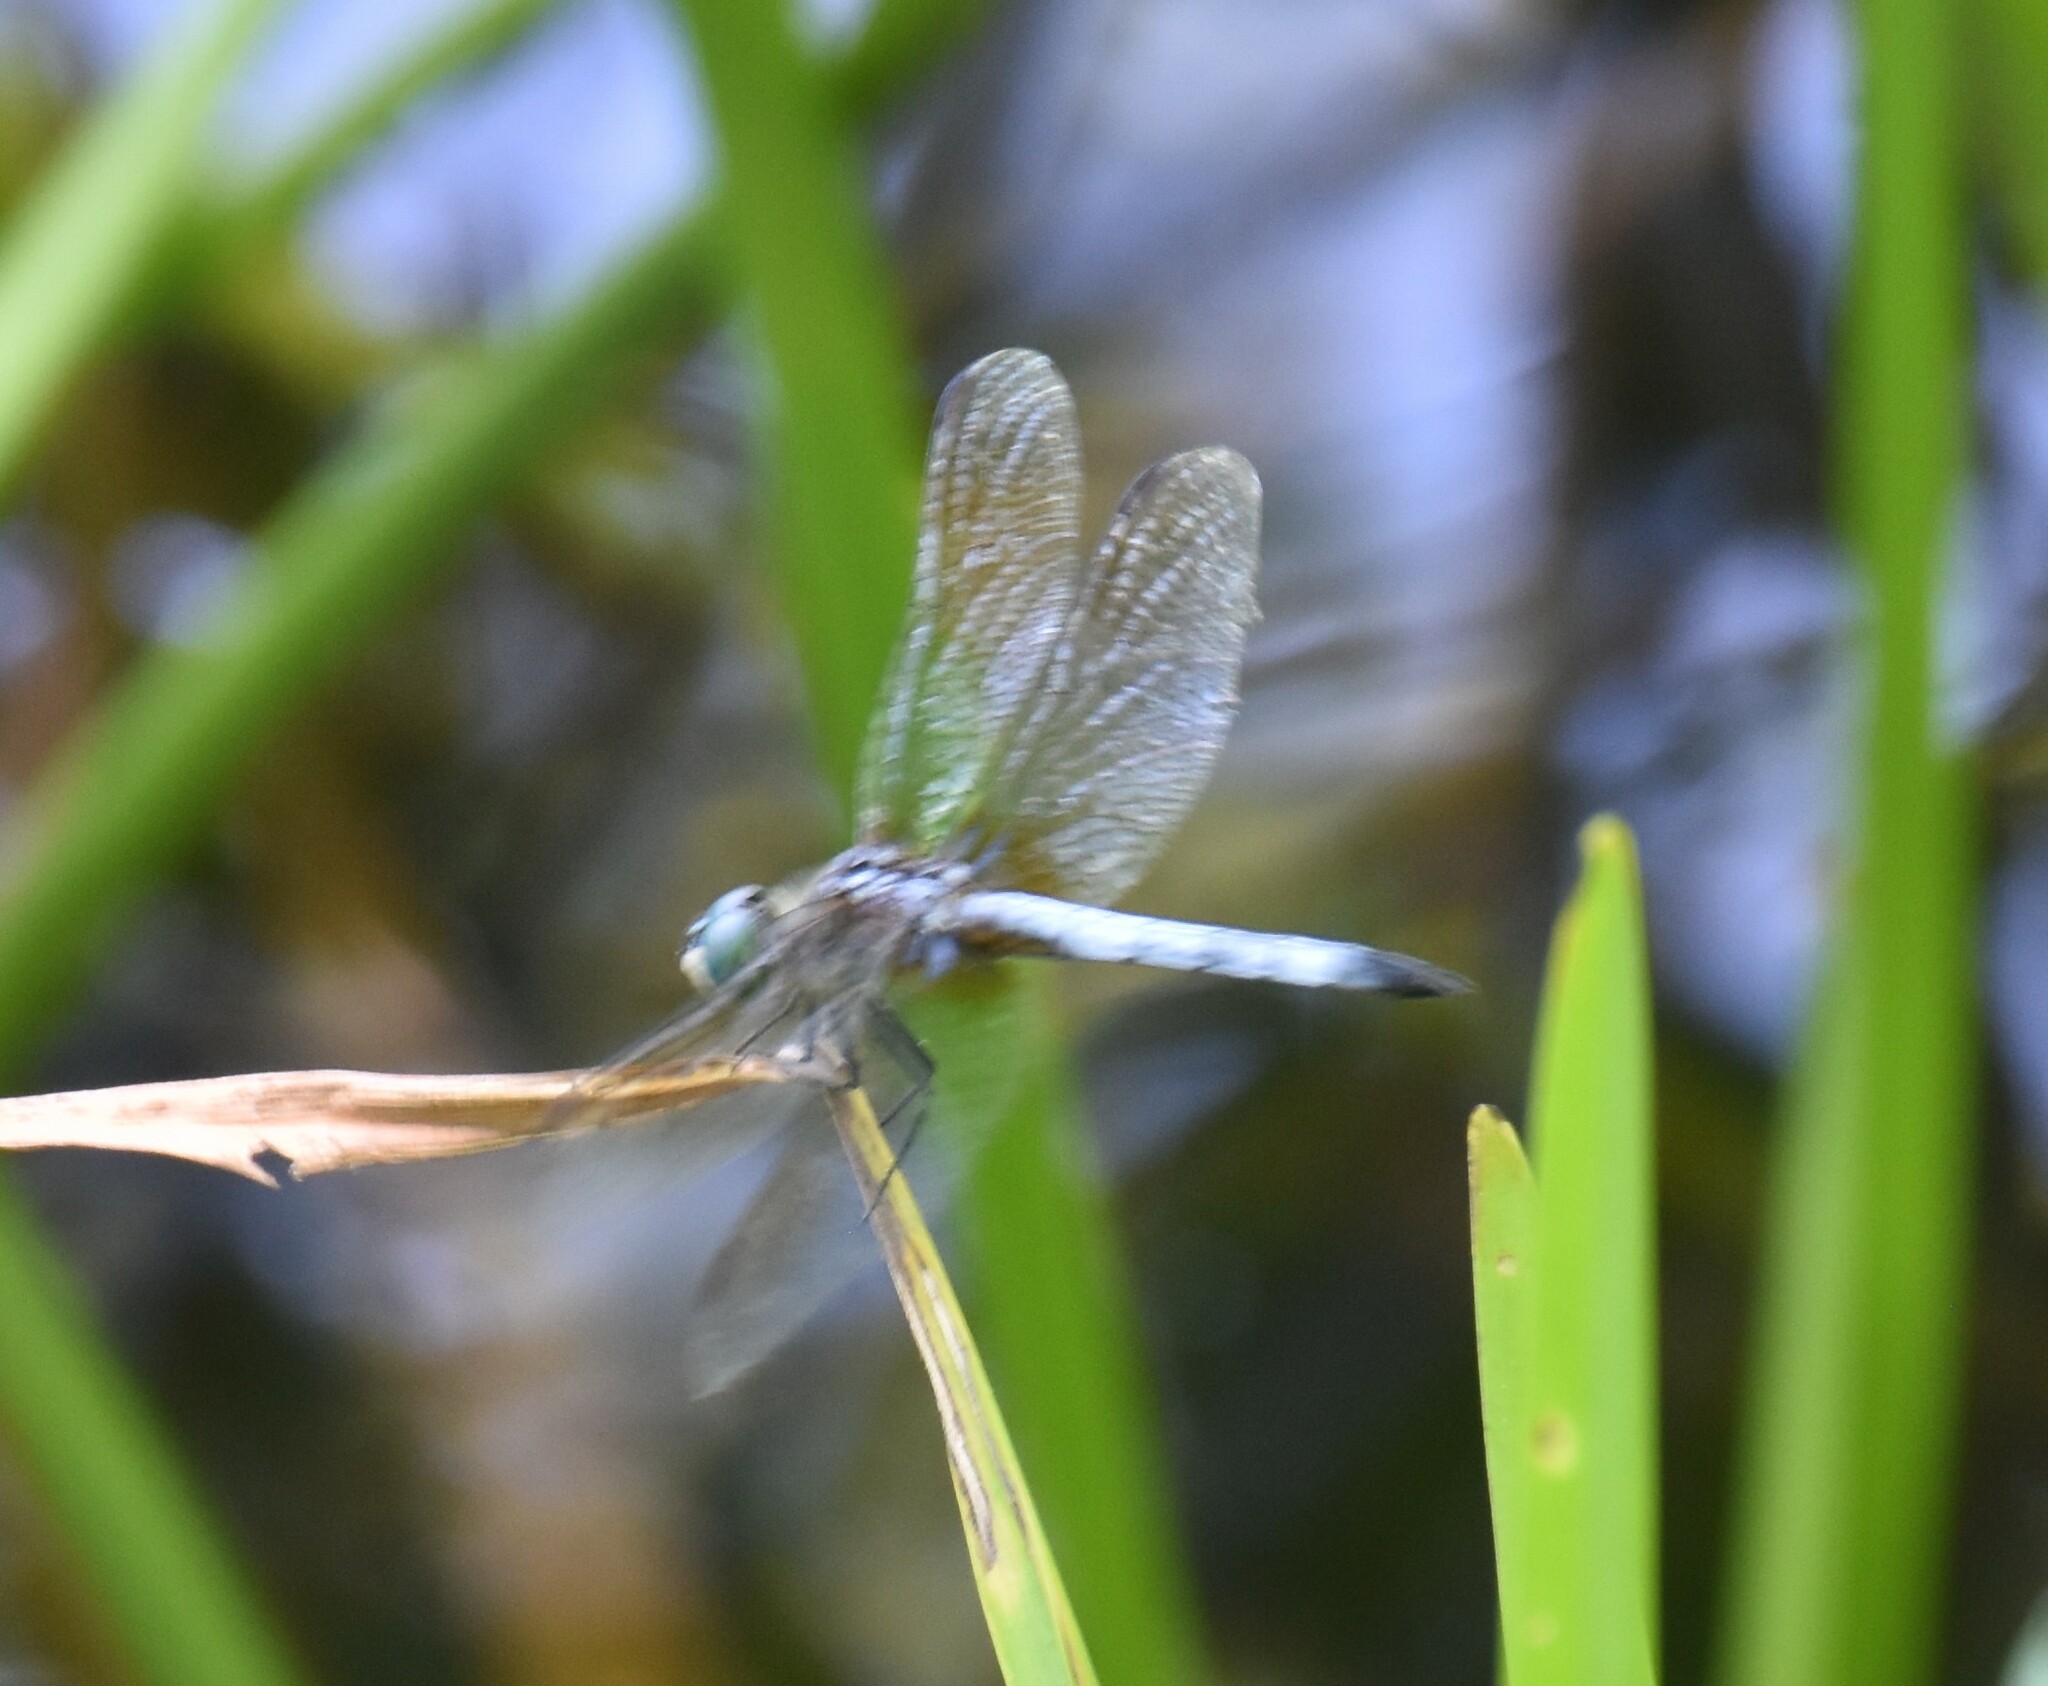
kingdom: Animalia
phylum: Arthropoda
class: Insecta
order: Odonata
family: Libellulidae
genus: Pachydiplax
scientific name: Pachydiplax longipennis
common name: Blue dasher
